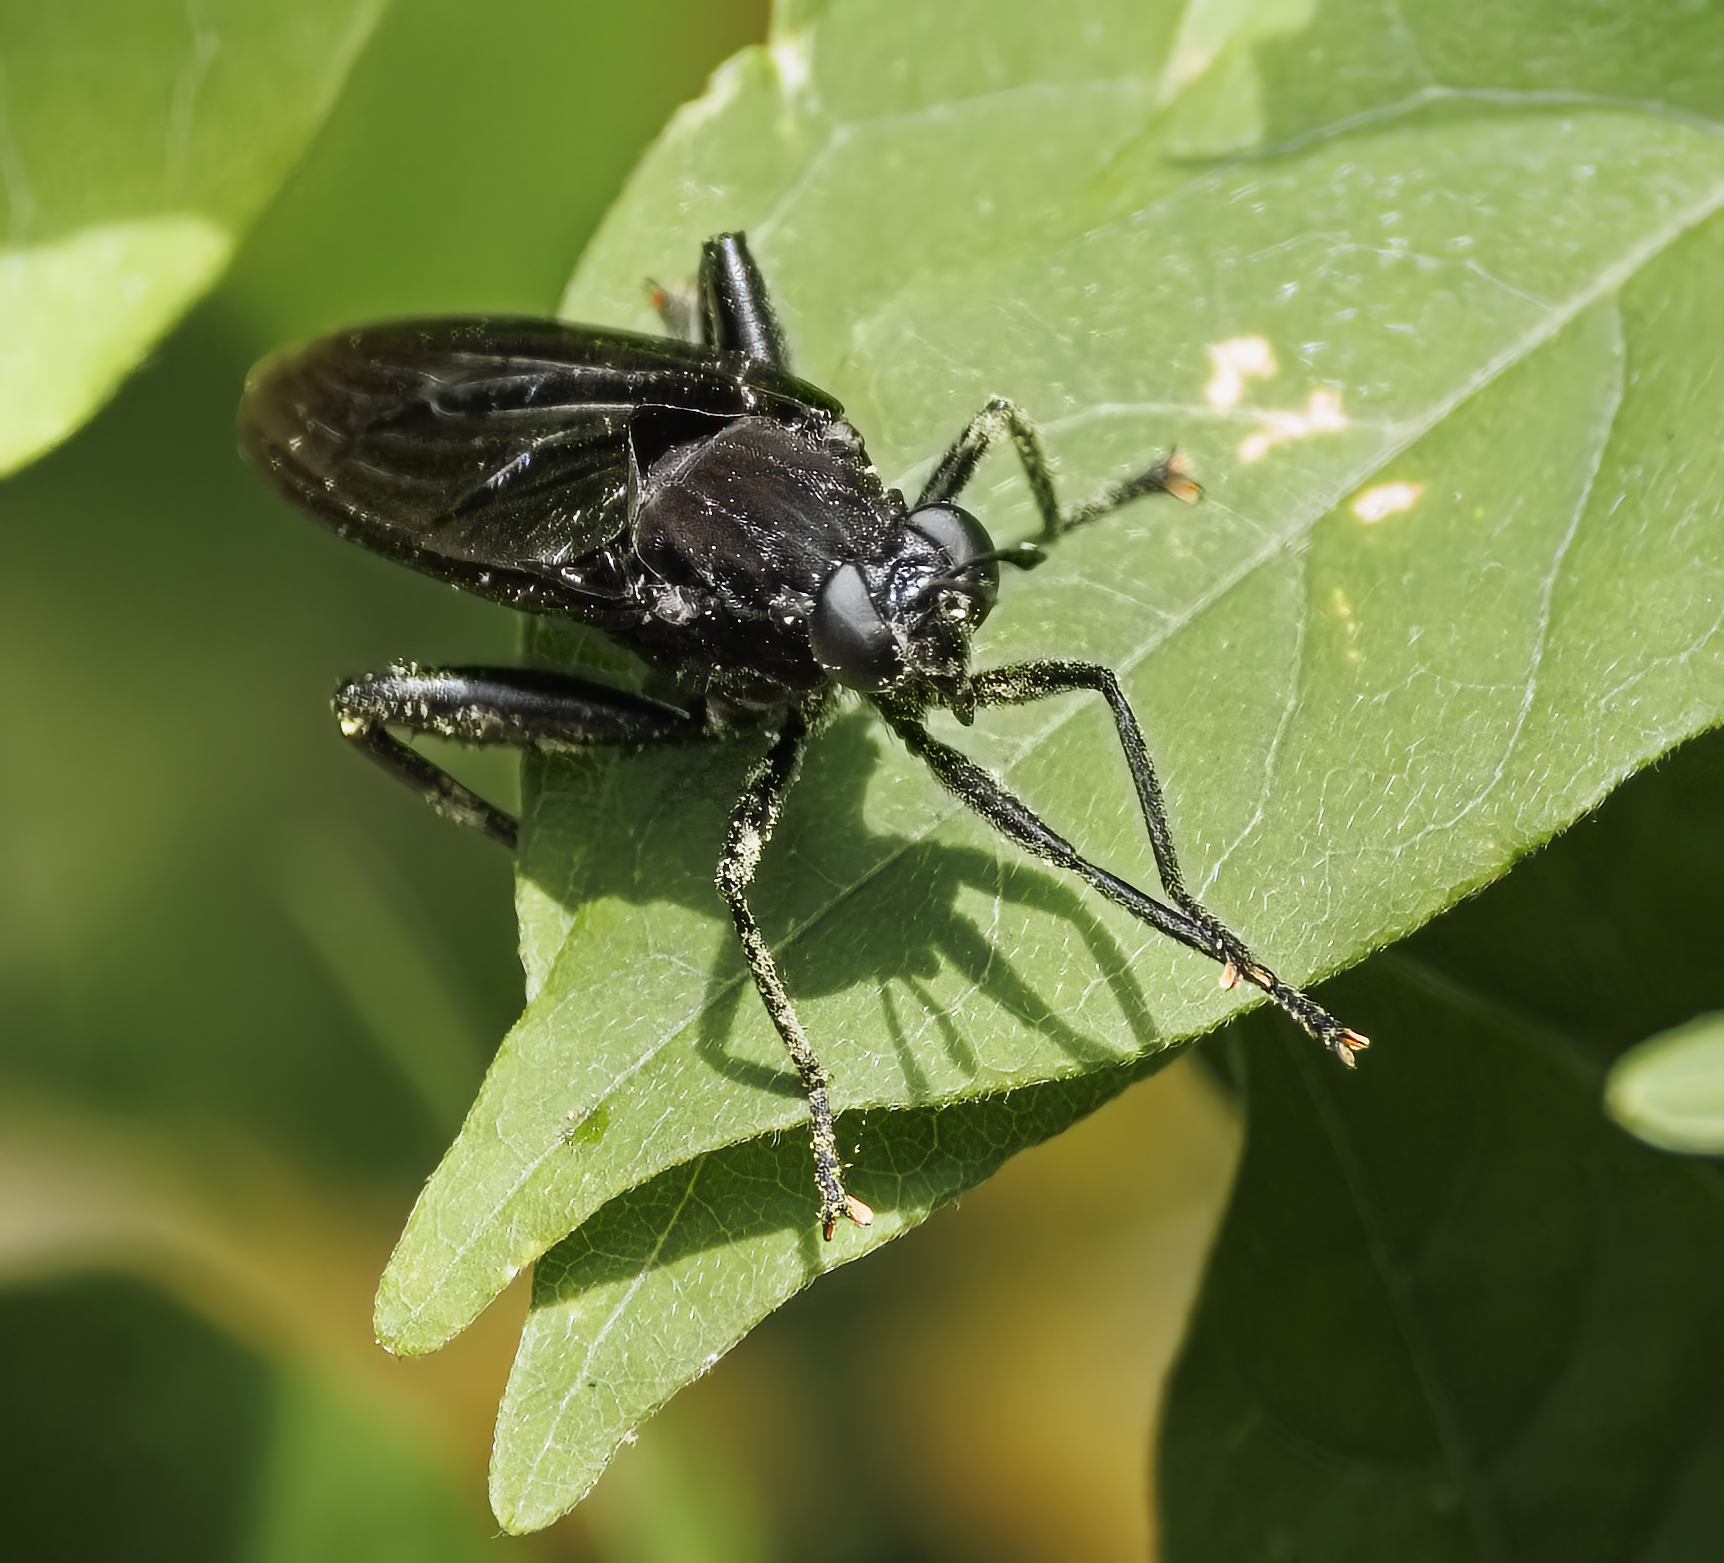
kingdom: Animalia
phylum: Arthropoda
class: Insecta
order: Diptera
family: Mydidae
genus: Mydas
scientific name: Mydas clavatus
